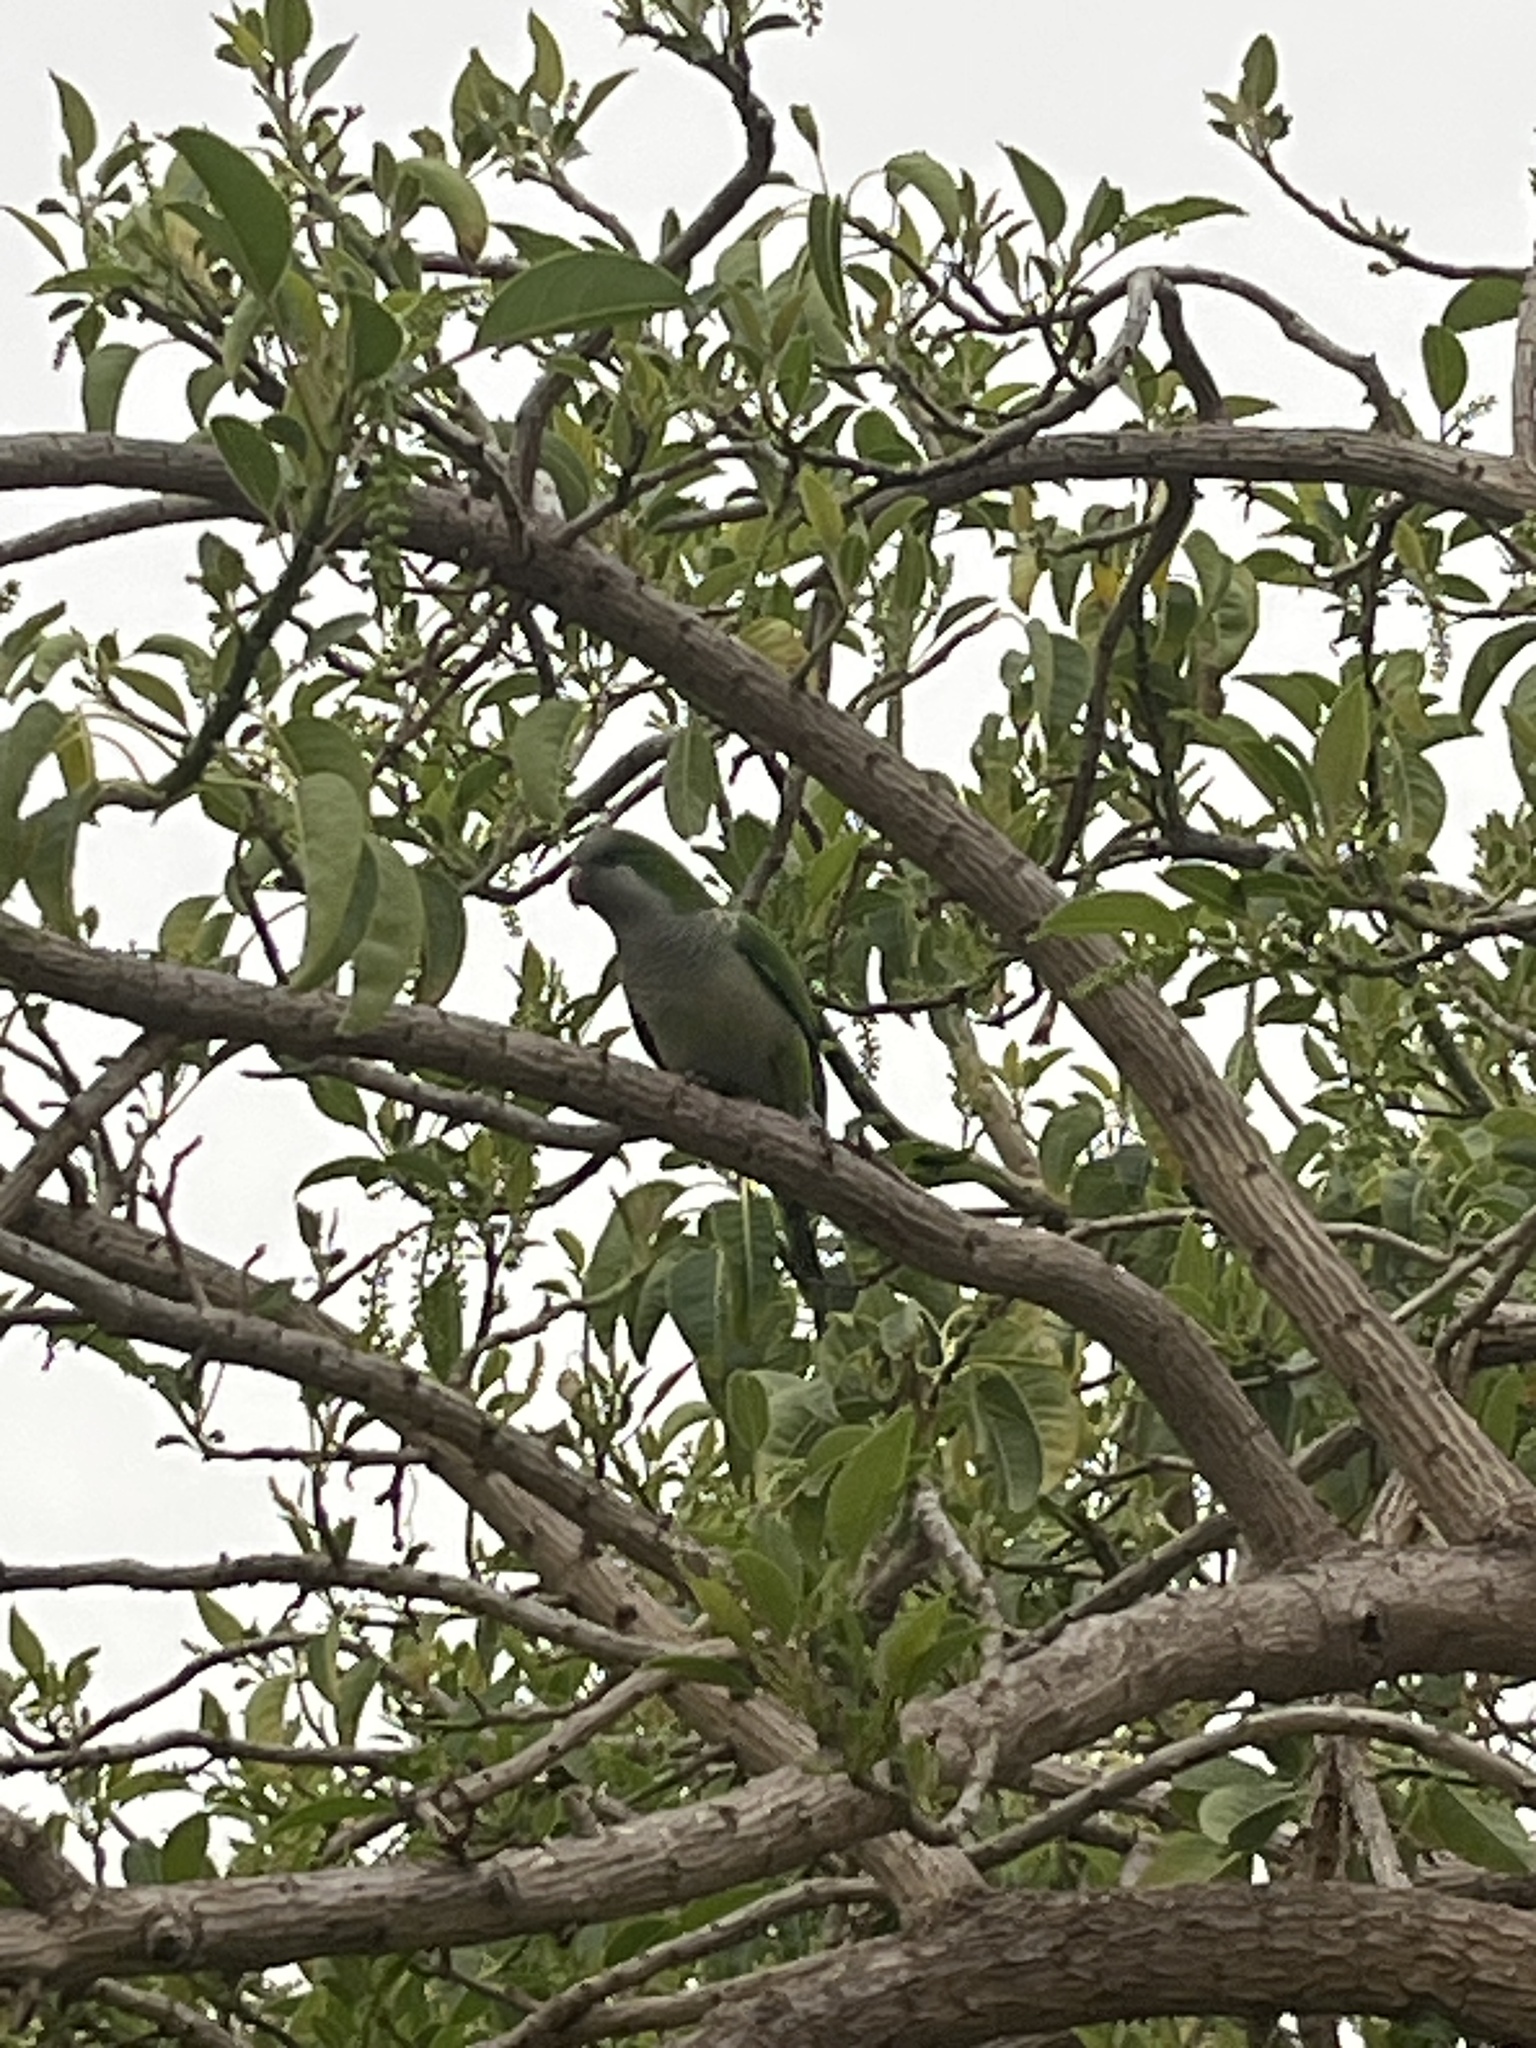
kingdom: Animalia
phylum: Chordata
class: Aves
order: Psittaciformes
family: Psittacidae
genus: Myiopsitta
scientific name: Myiopsitta monachus
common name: Monk parakeet
